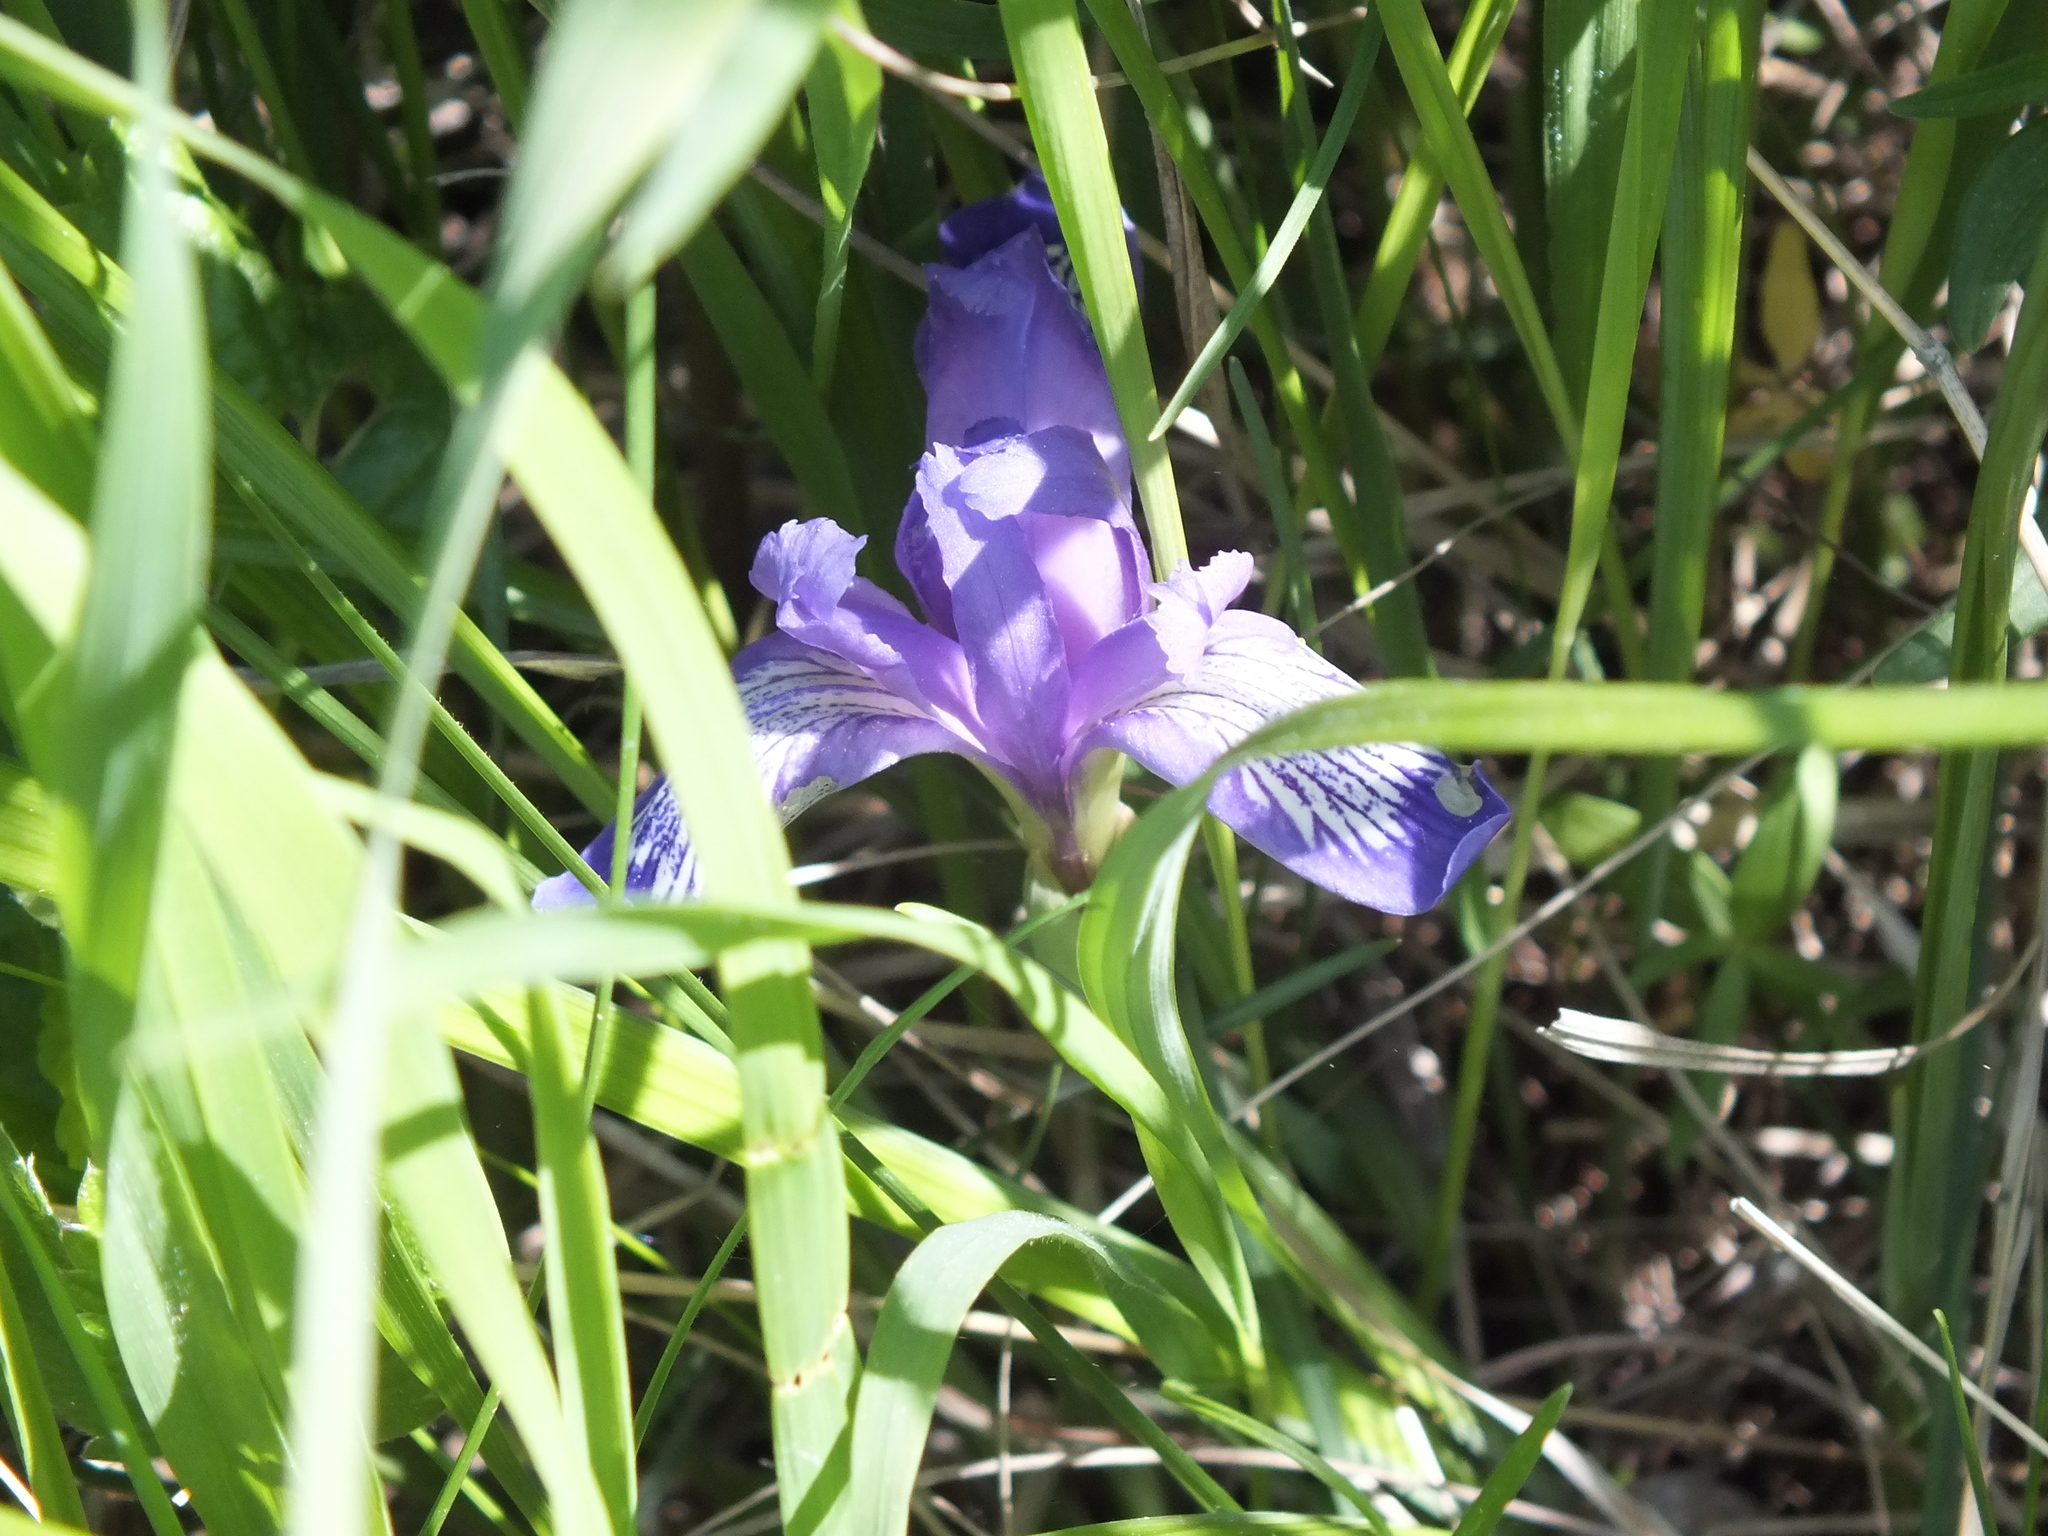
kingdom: Plantae
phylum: Tracheophyta
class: Liliopsida
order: Asparagales
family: Iridaceae
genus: Iris
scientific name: Iris ruthenica
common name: Purple-bract iris
